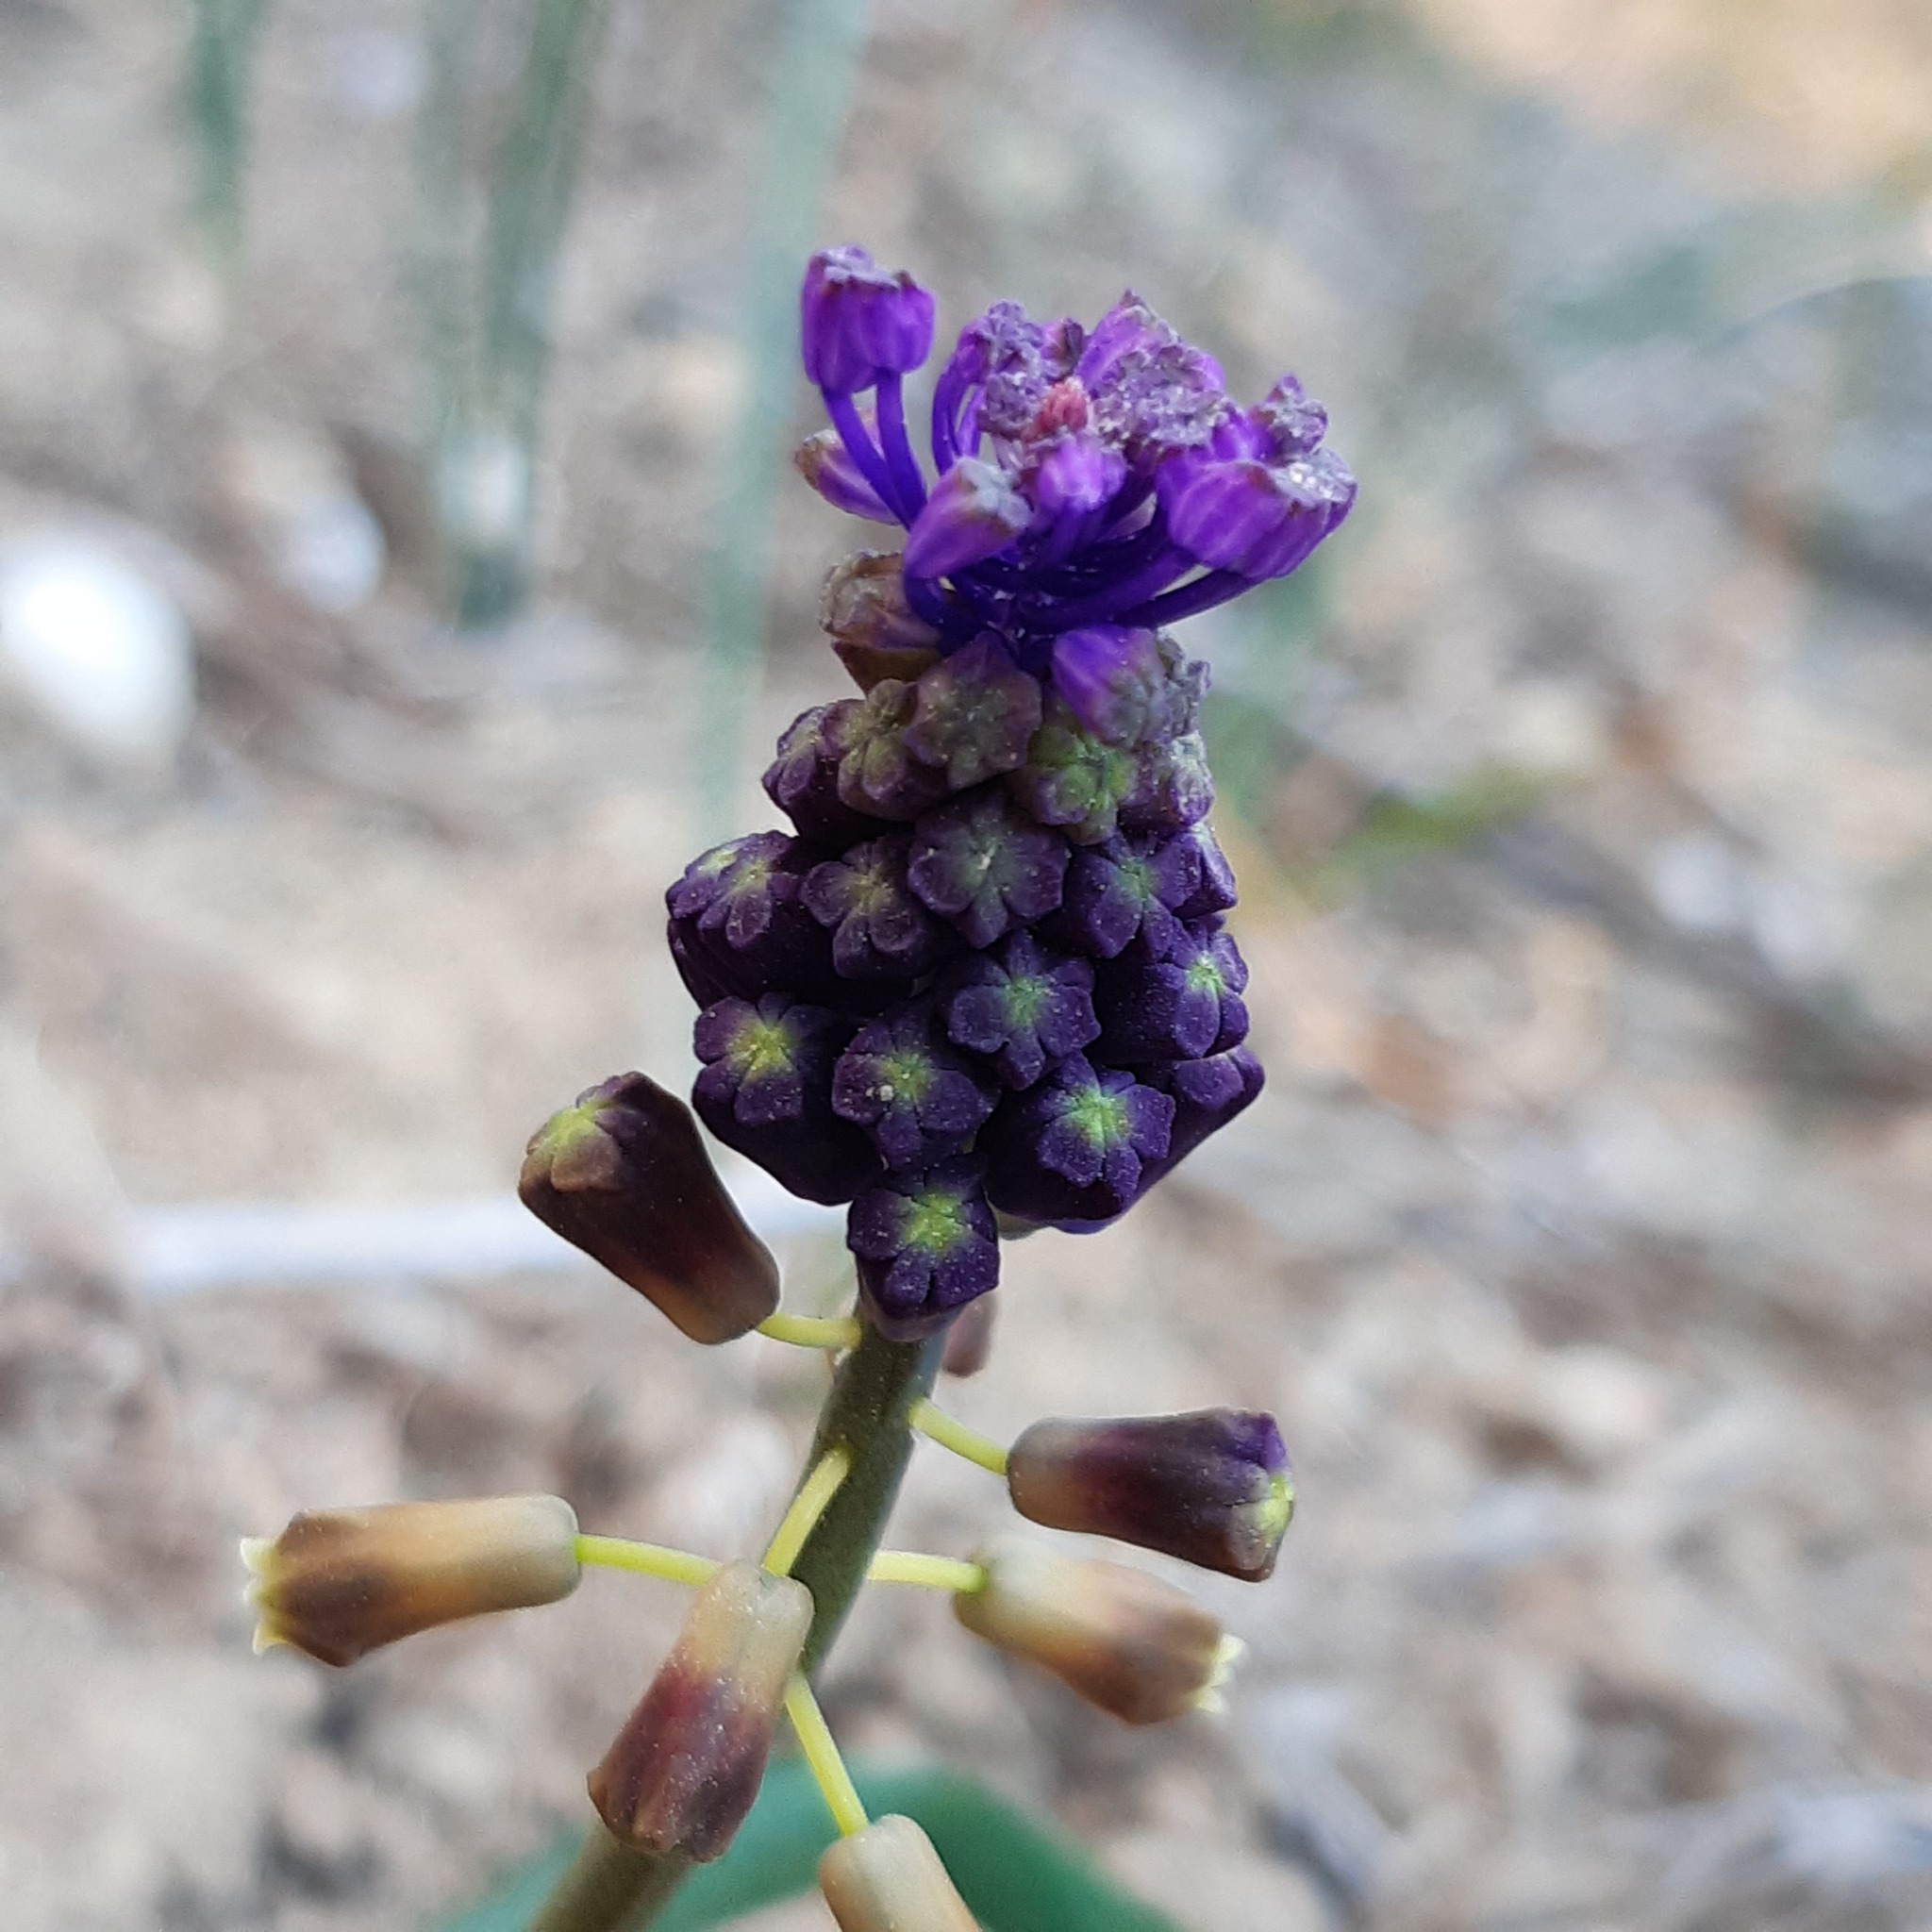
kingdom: Plantae
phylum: Tracheophyta
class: Liliopsida
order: Asparagales
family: Asparagaceae
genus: Muscari
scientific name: Muscari comosum
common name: Tassel hyacinth
